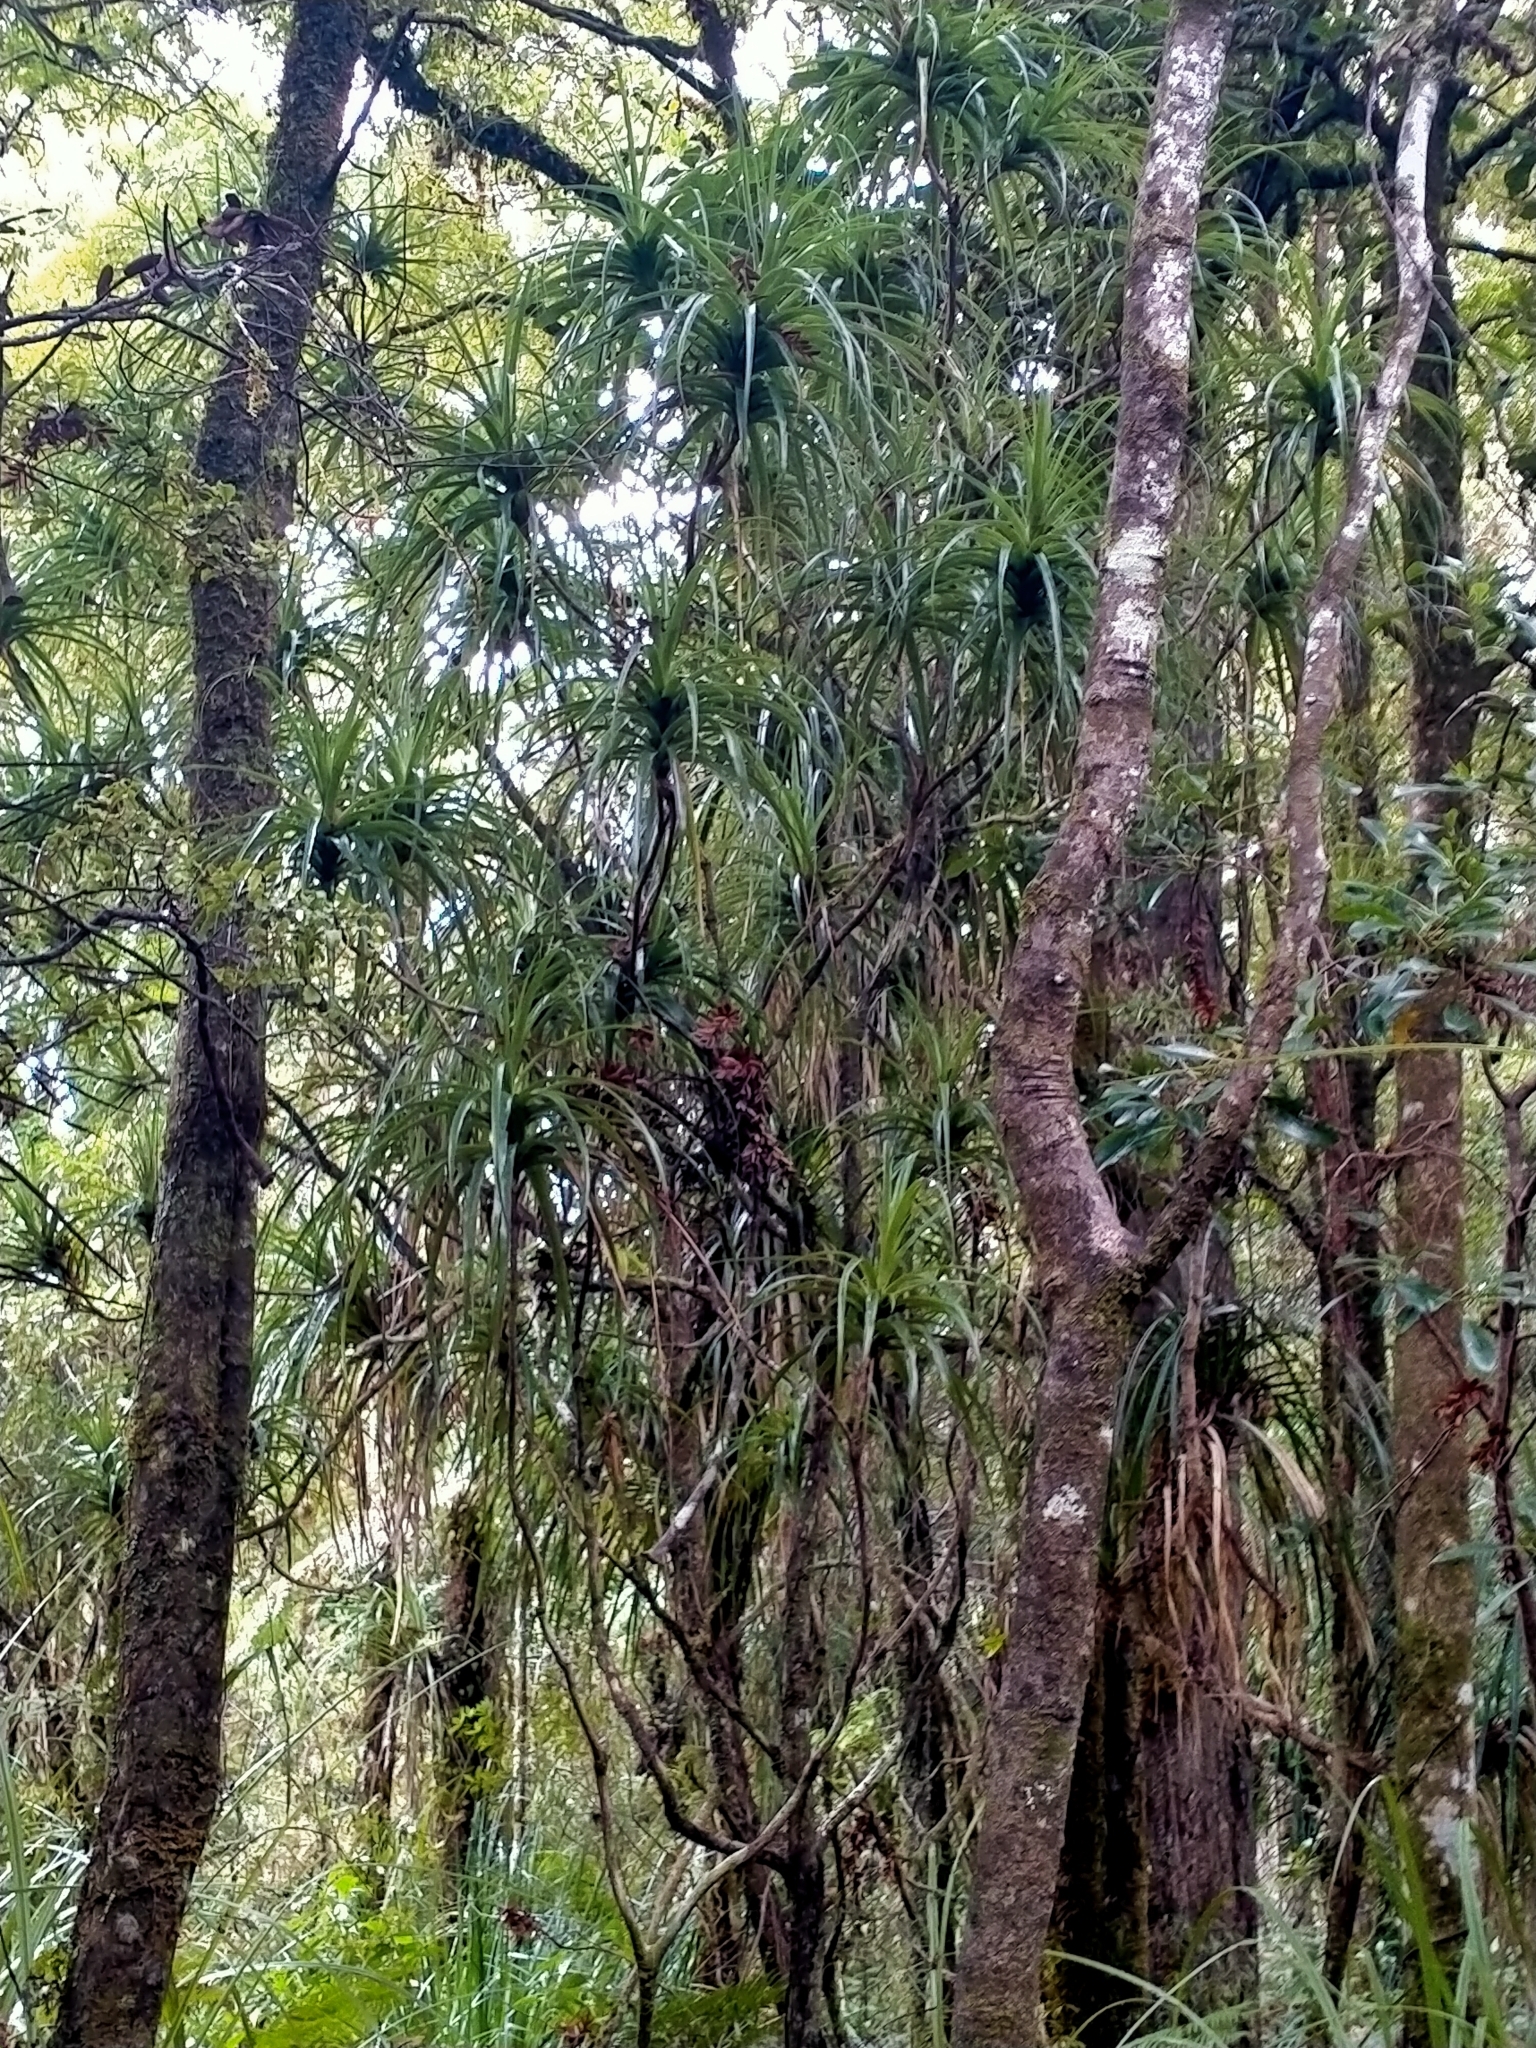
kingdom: Plantae
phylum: Tracheophyta
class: Magnoliopsida
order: Ericales
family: Ericaceae
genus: Dracophyllum
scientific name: Dracophyllum latifolium
